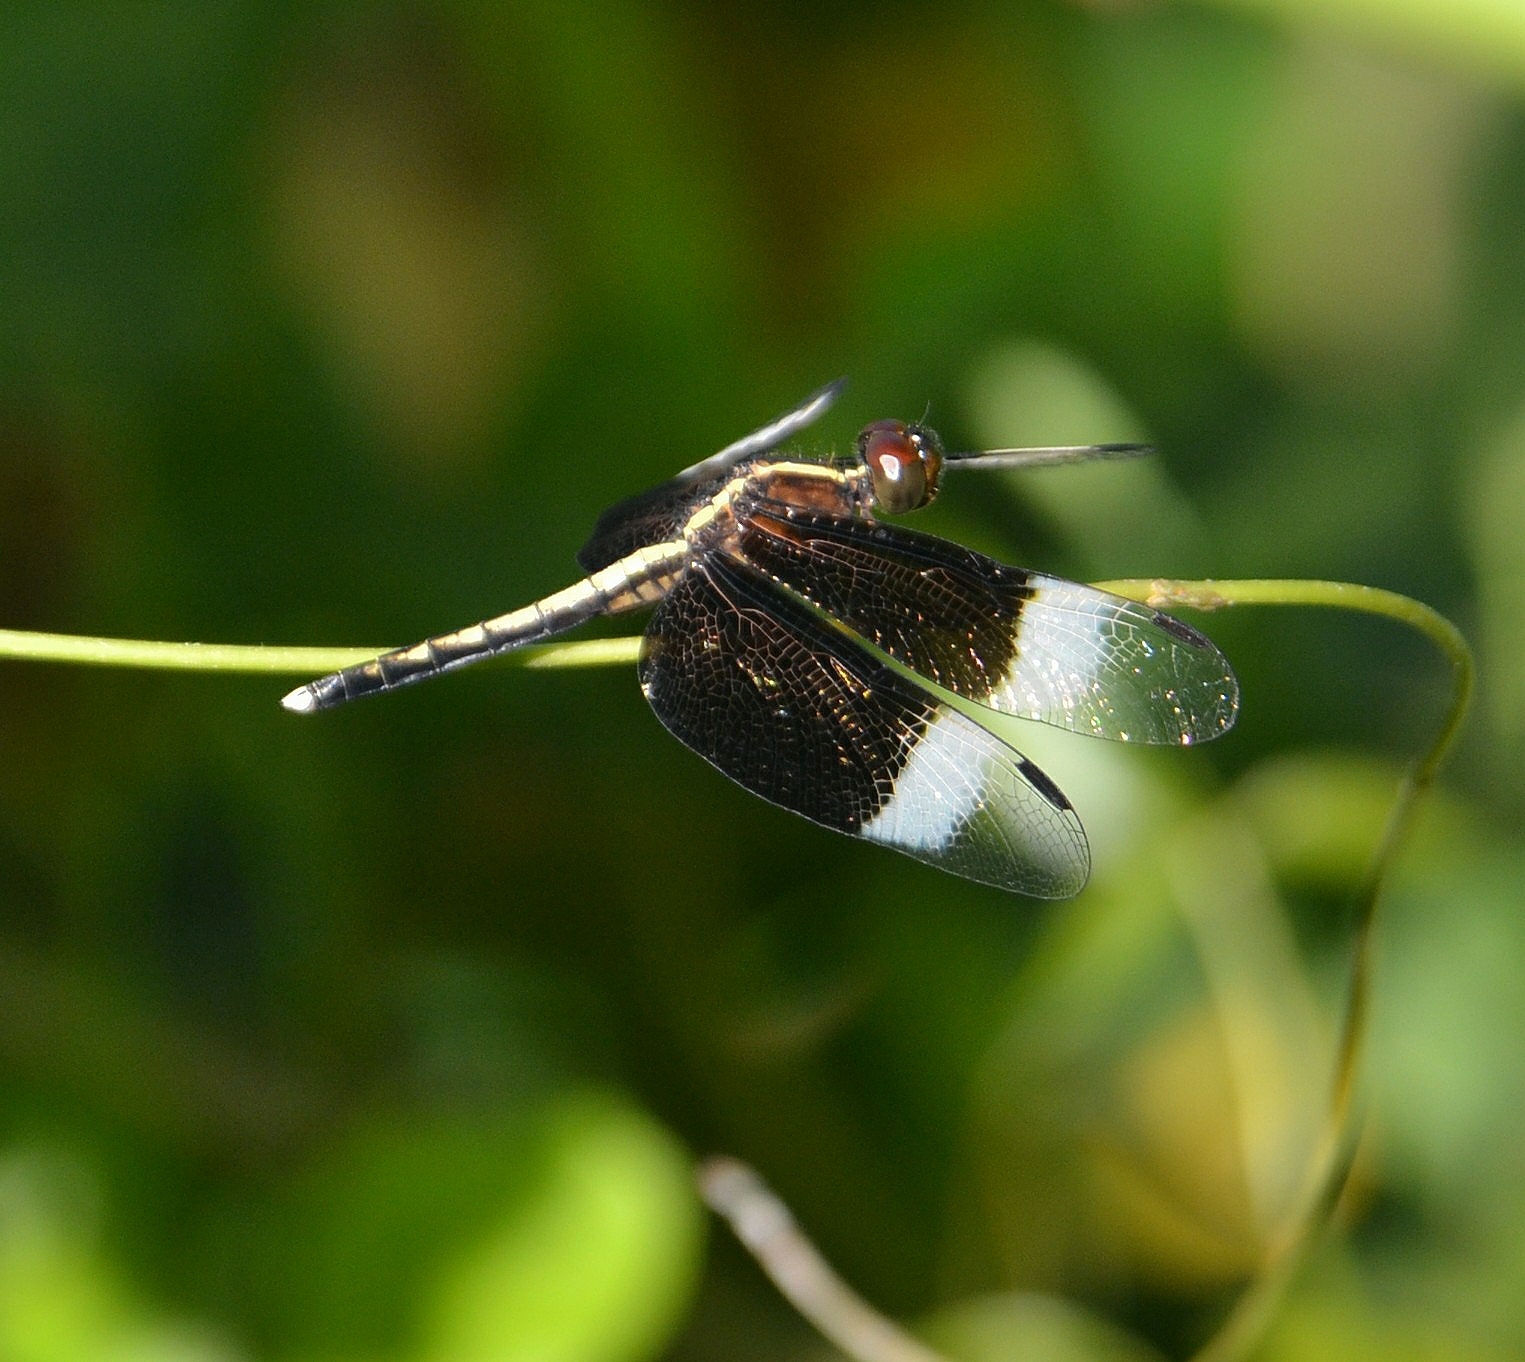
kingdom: Animalia
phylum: Arthropoda
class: Insecta
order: Odonata
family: Libellulidae
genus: Neurothemis
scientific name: Neurothemis tullia
